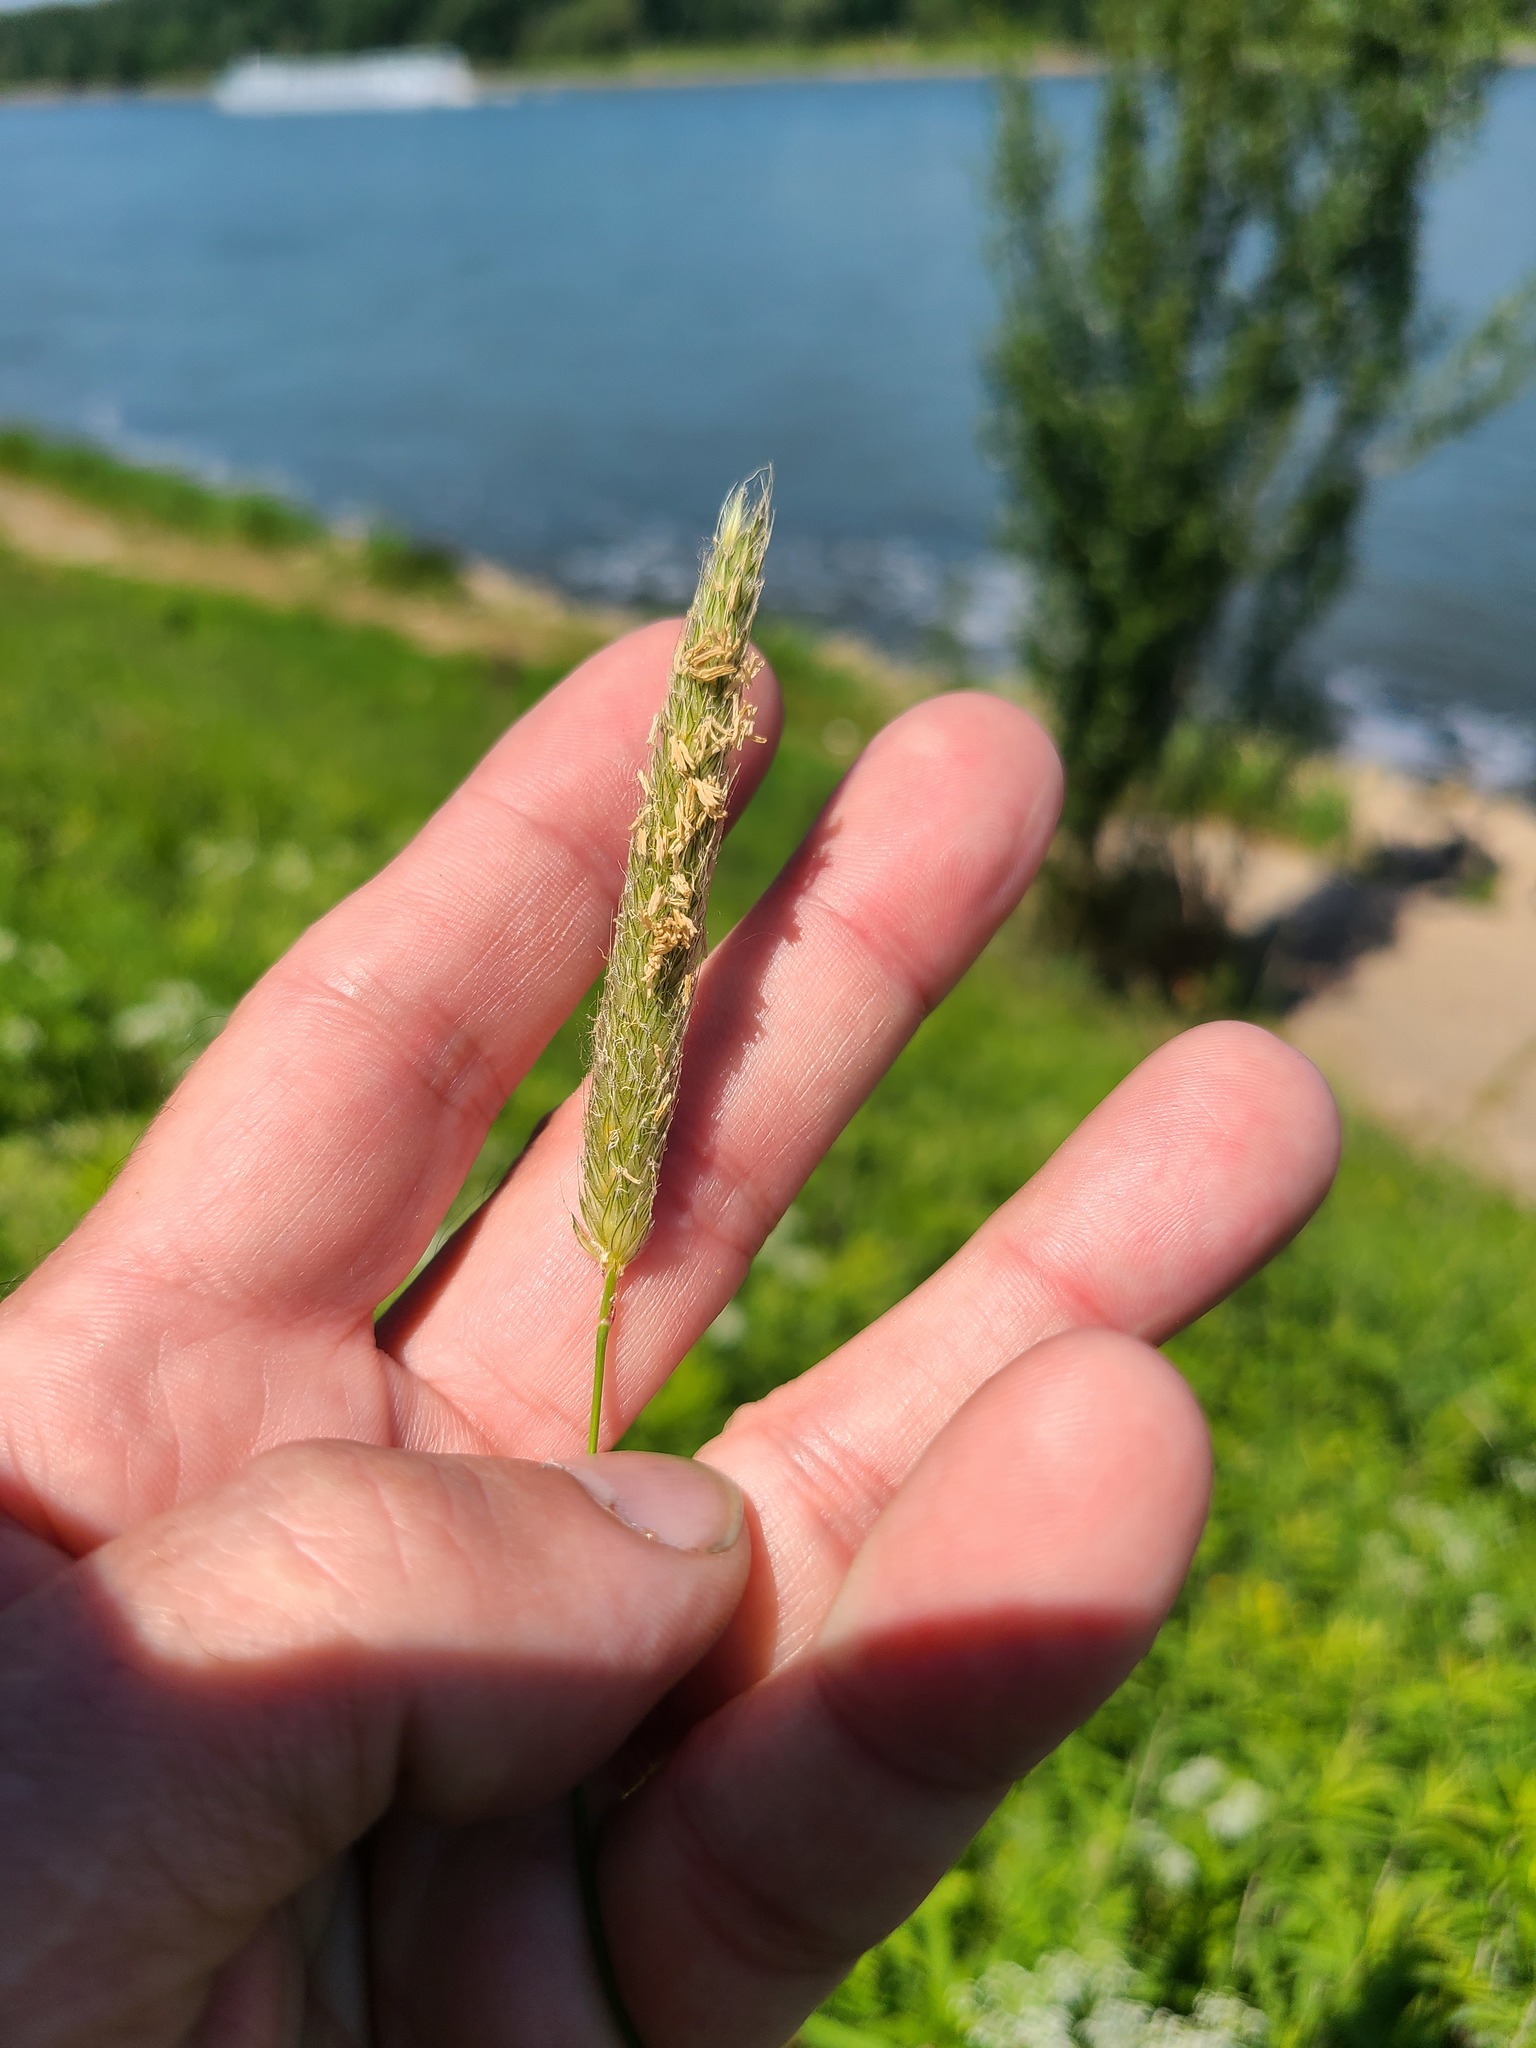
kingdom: Plantae
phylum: Tracheophyta
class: Liliopsida
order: Poales
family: Poaceae
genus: Alopecurus
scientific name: Alopecurus pratensis
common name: Meadow foxtail
